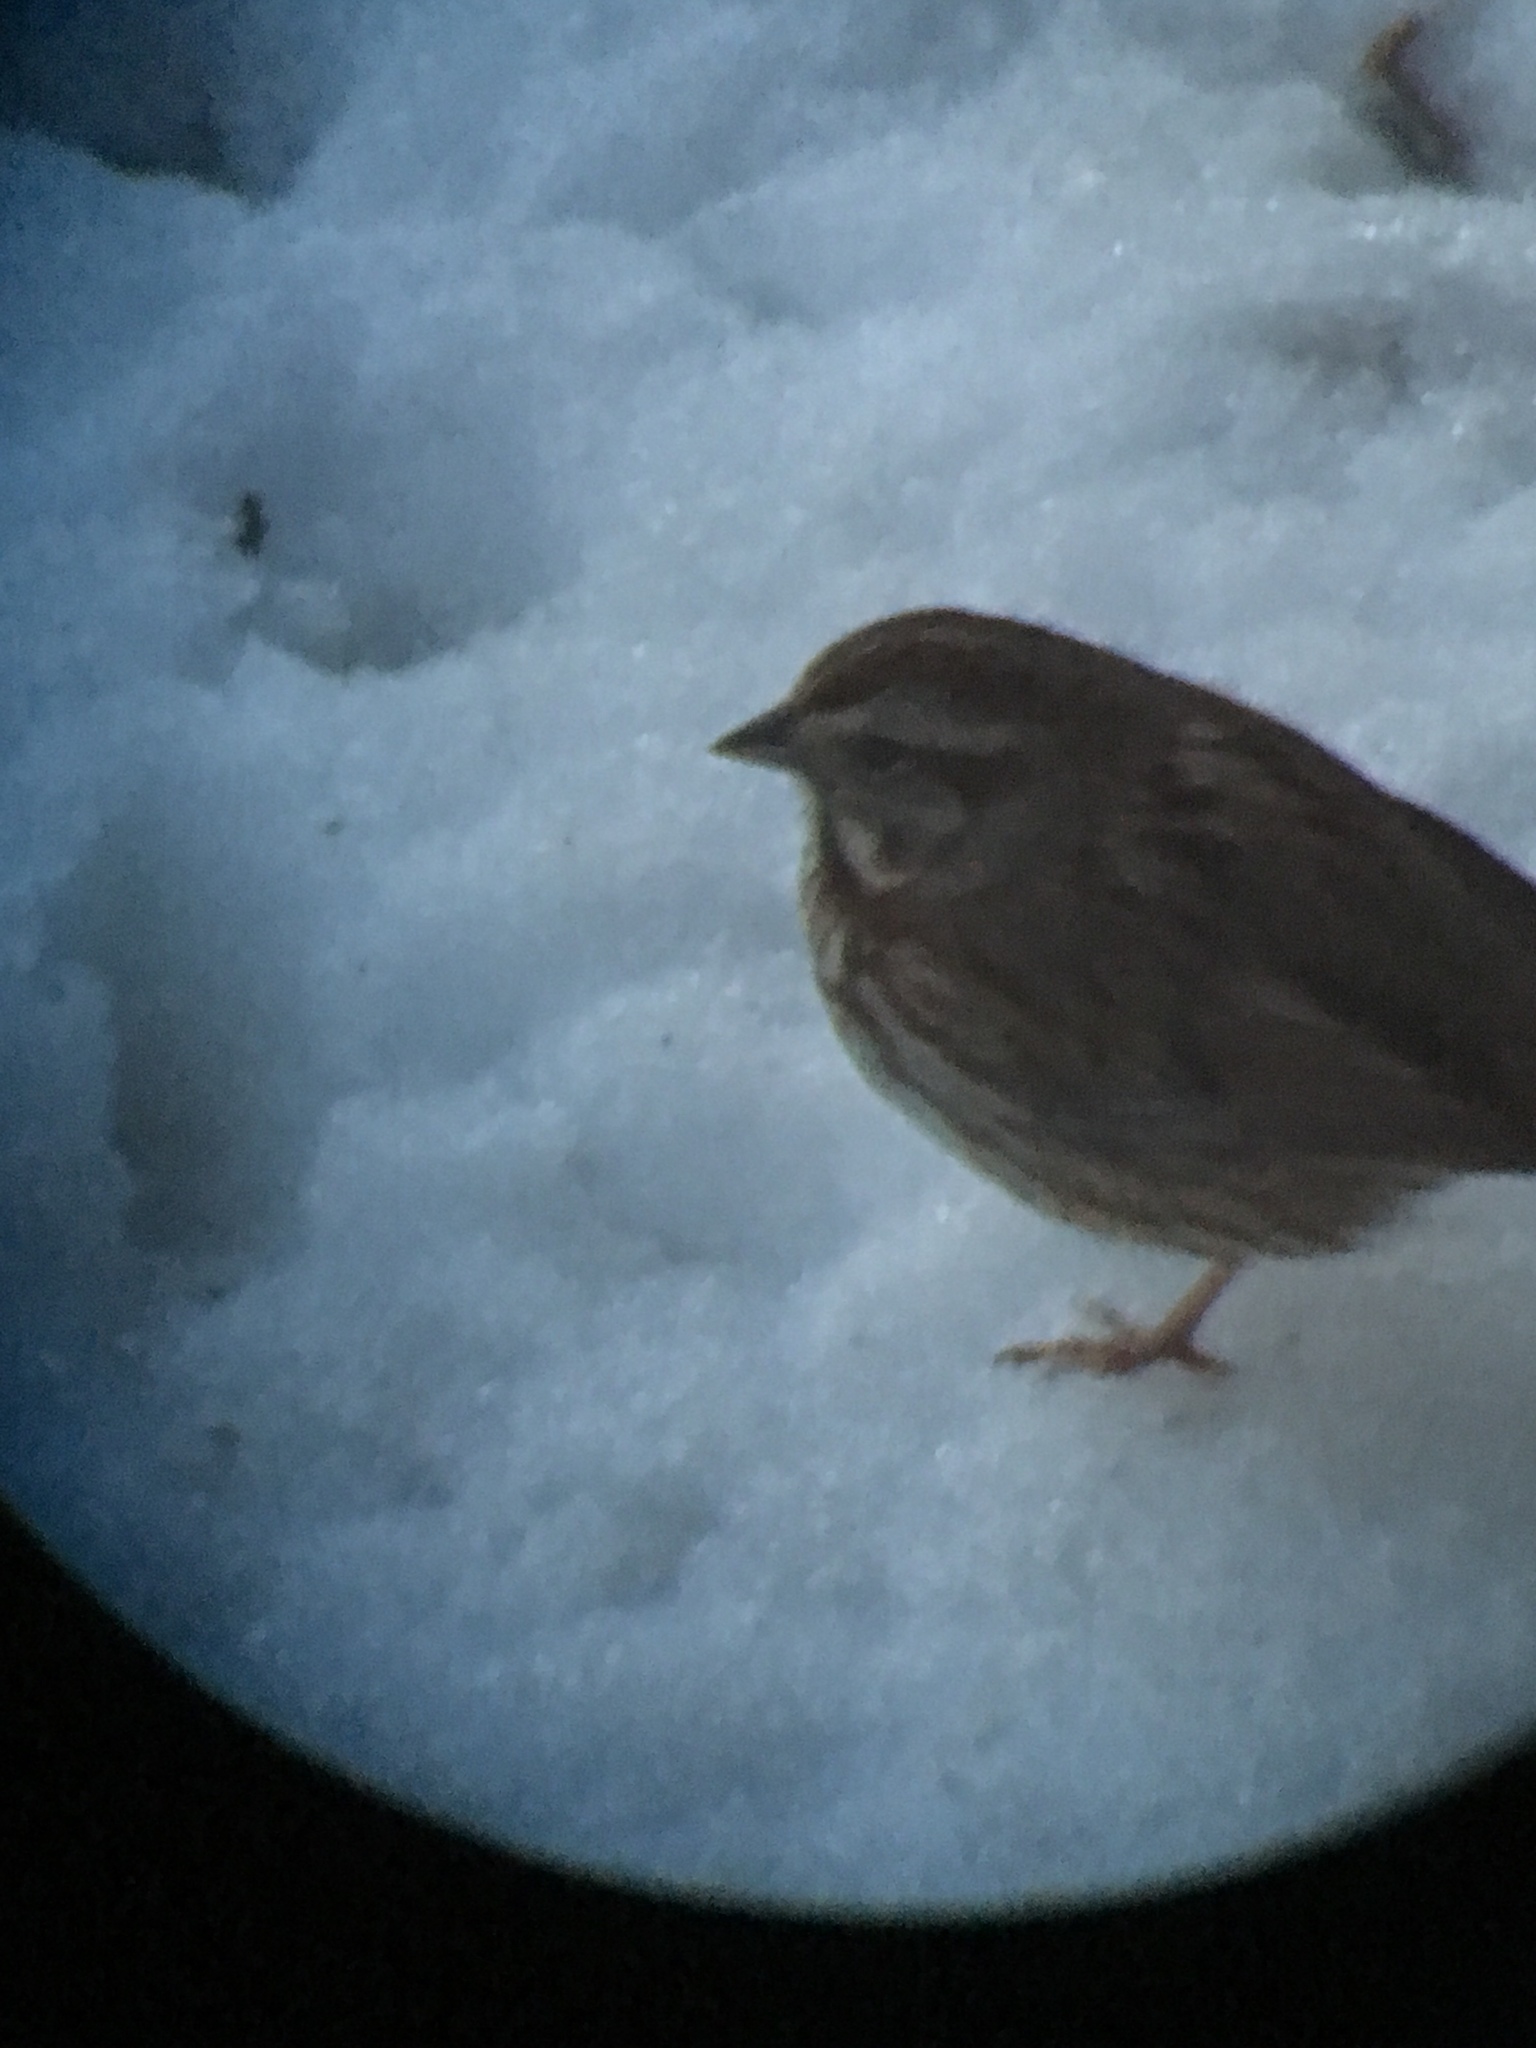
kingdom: Animalia
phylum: Chordata
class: Aves
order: Passeriformes
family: Passerellidae
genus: Melospiza
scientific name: Melospiza melodia
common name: Song sparrow
